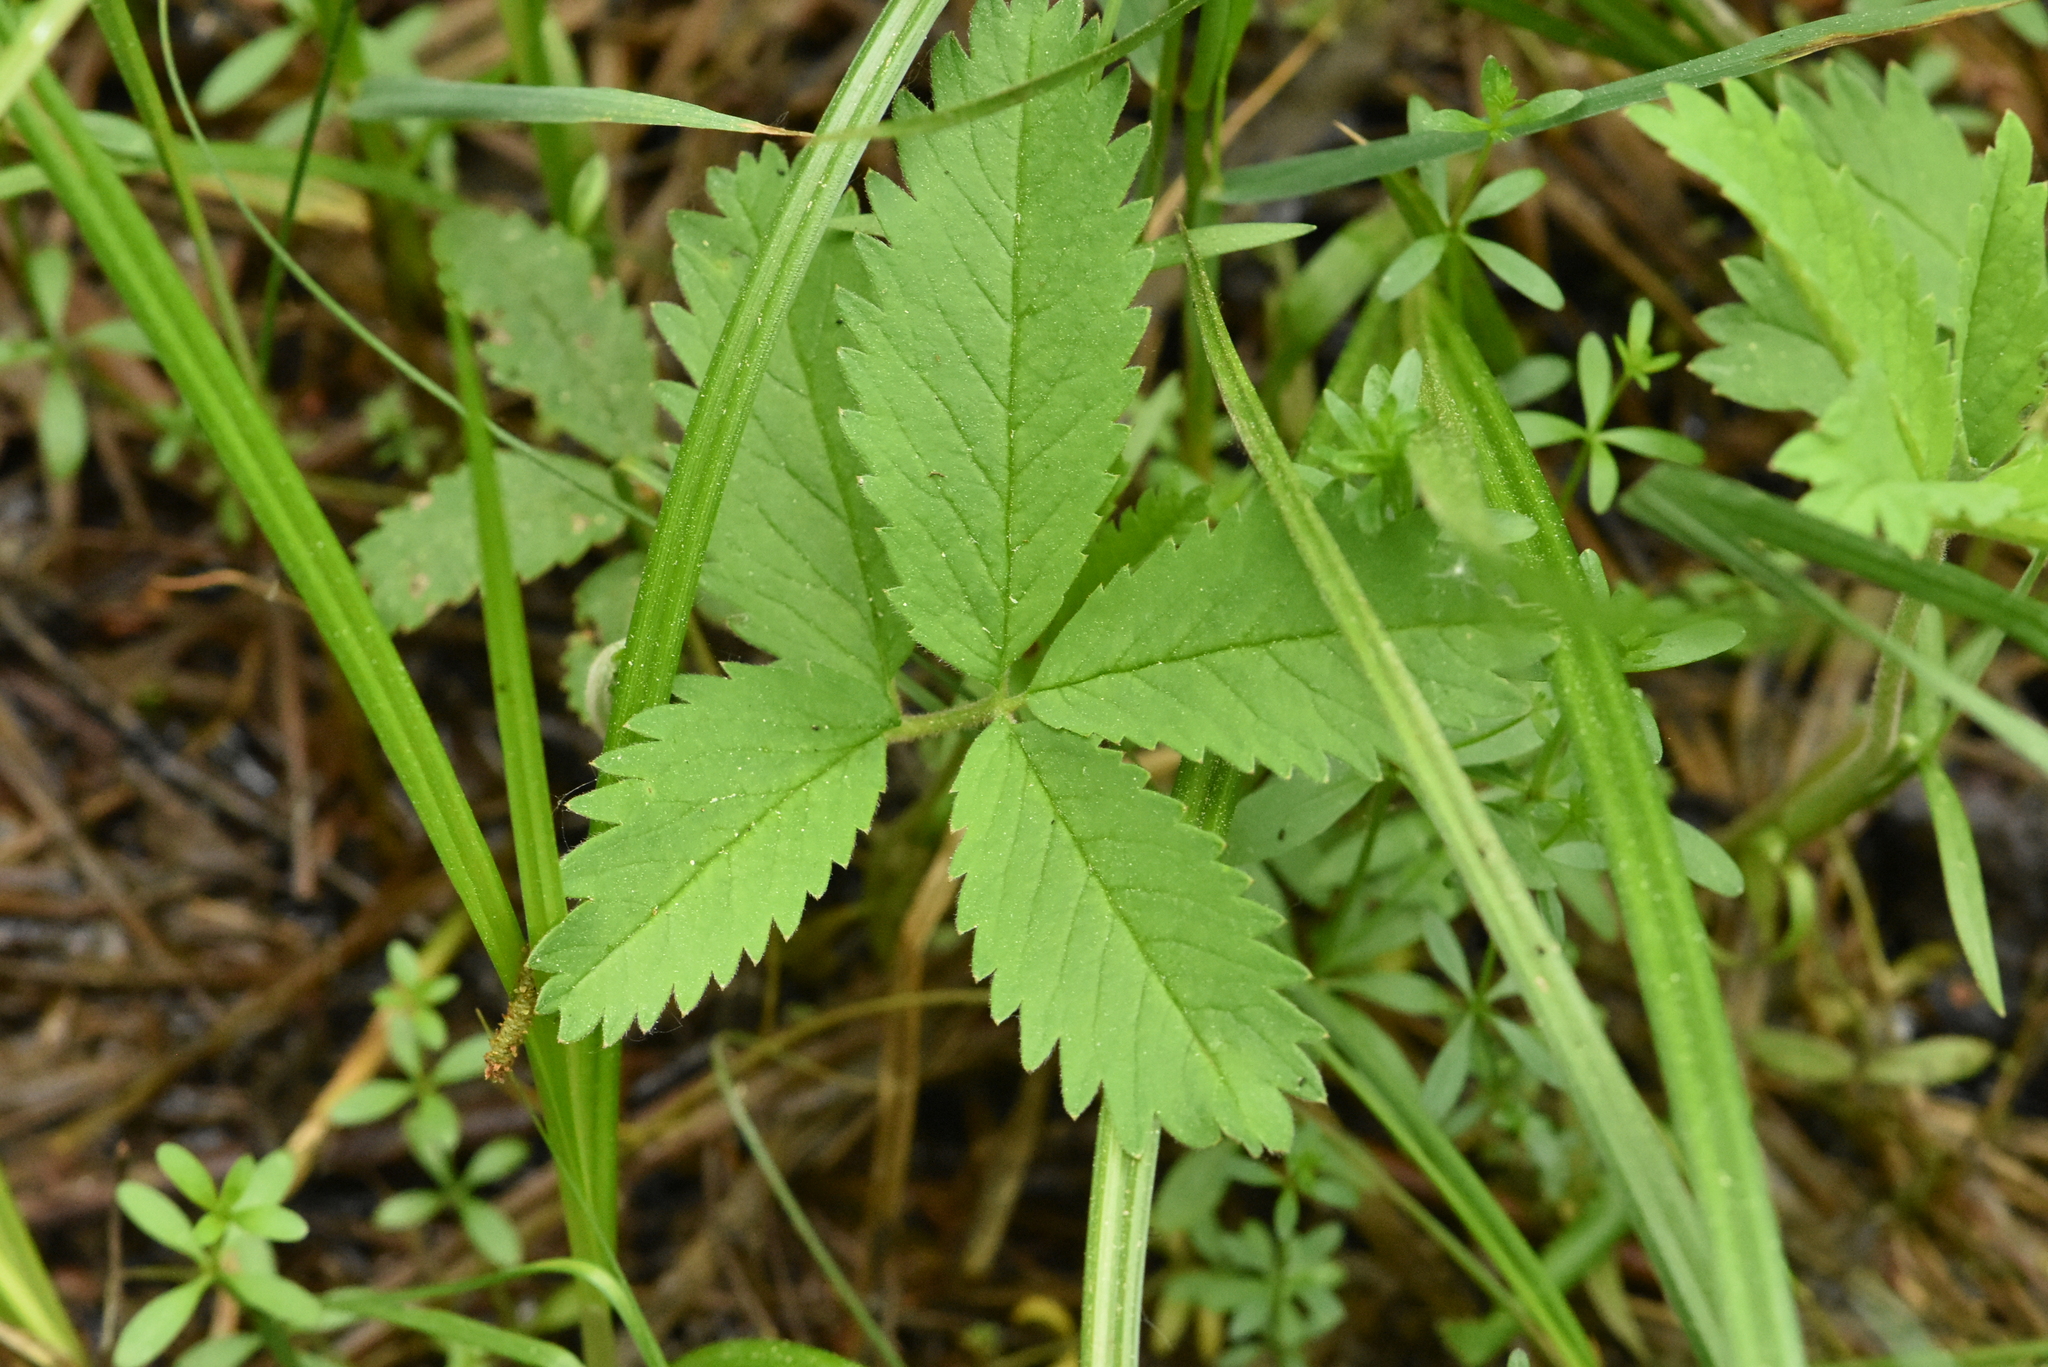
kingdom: Plantae
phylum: Tracheophyta
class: Magnoliopsida
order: Rosales
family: Rosaceae
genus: Comarum
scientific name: Comarum palustre
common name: Marsh cinquefoil
